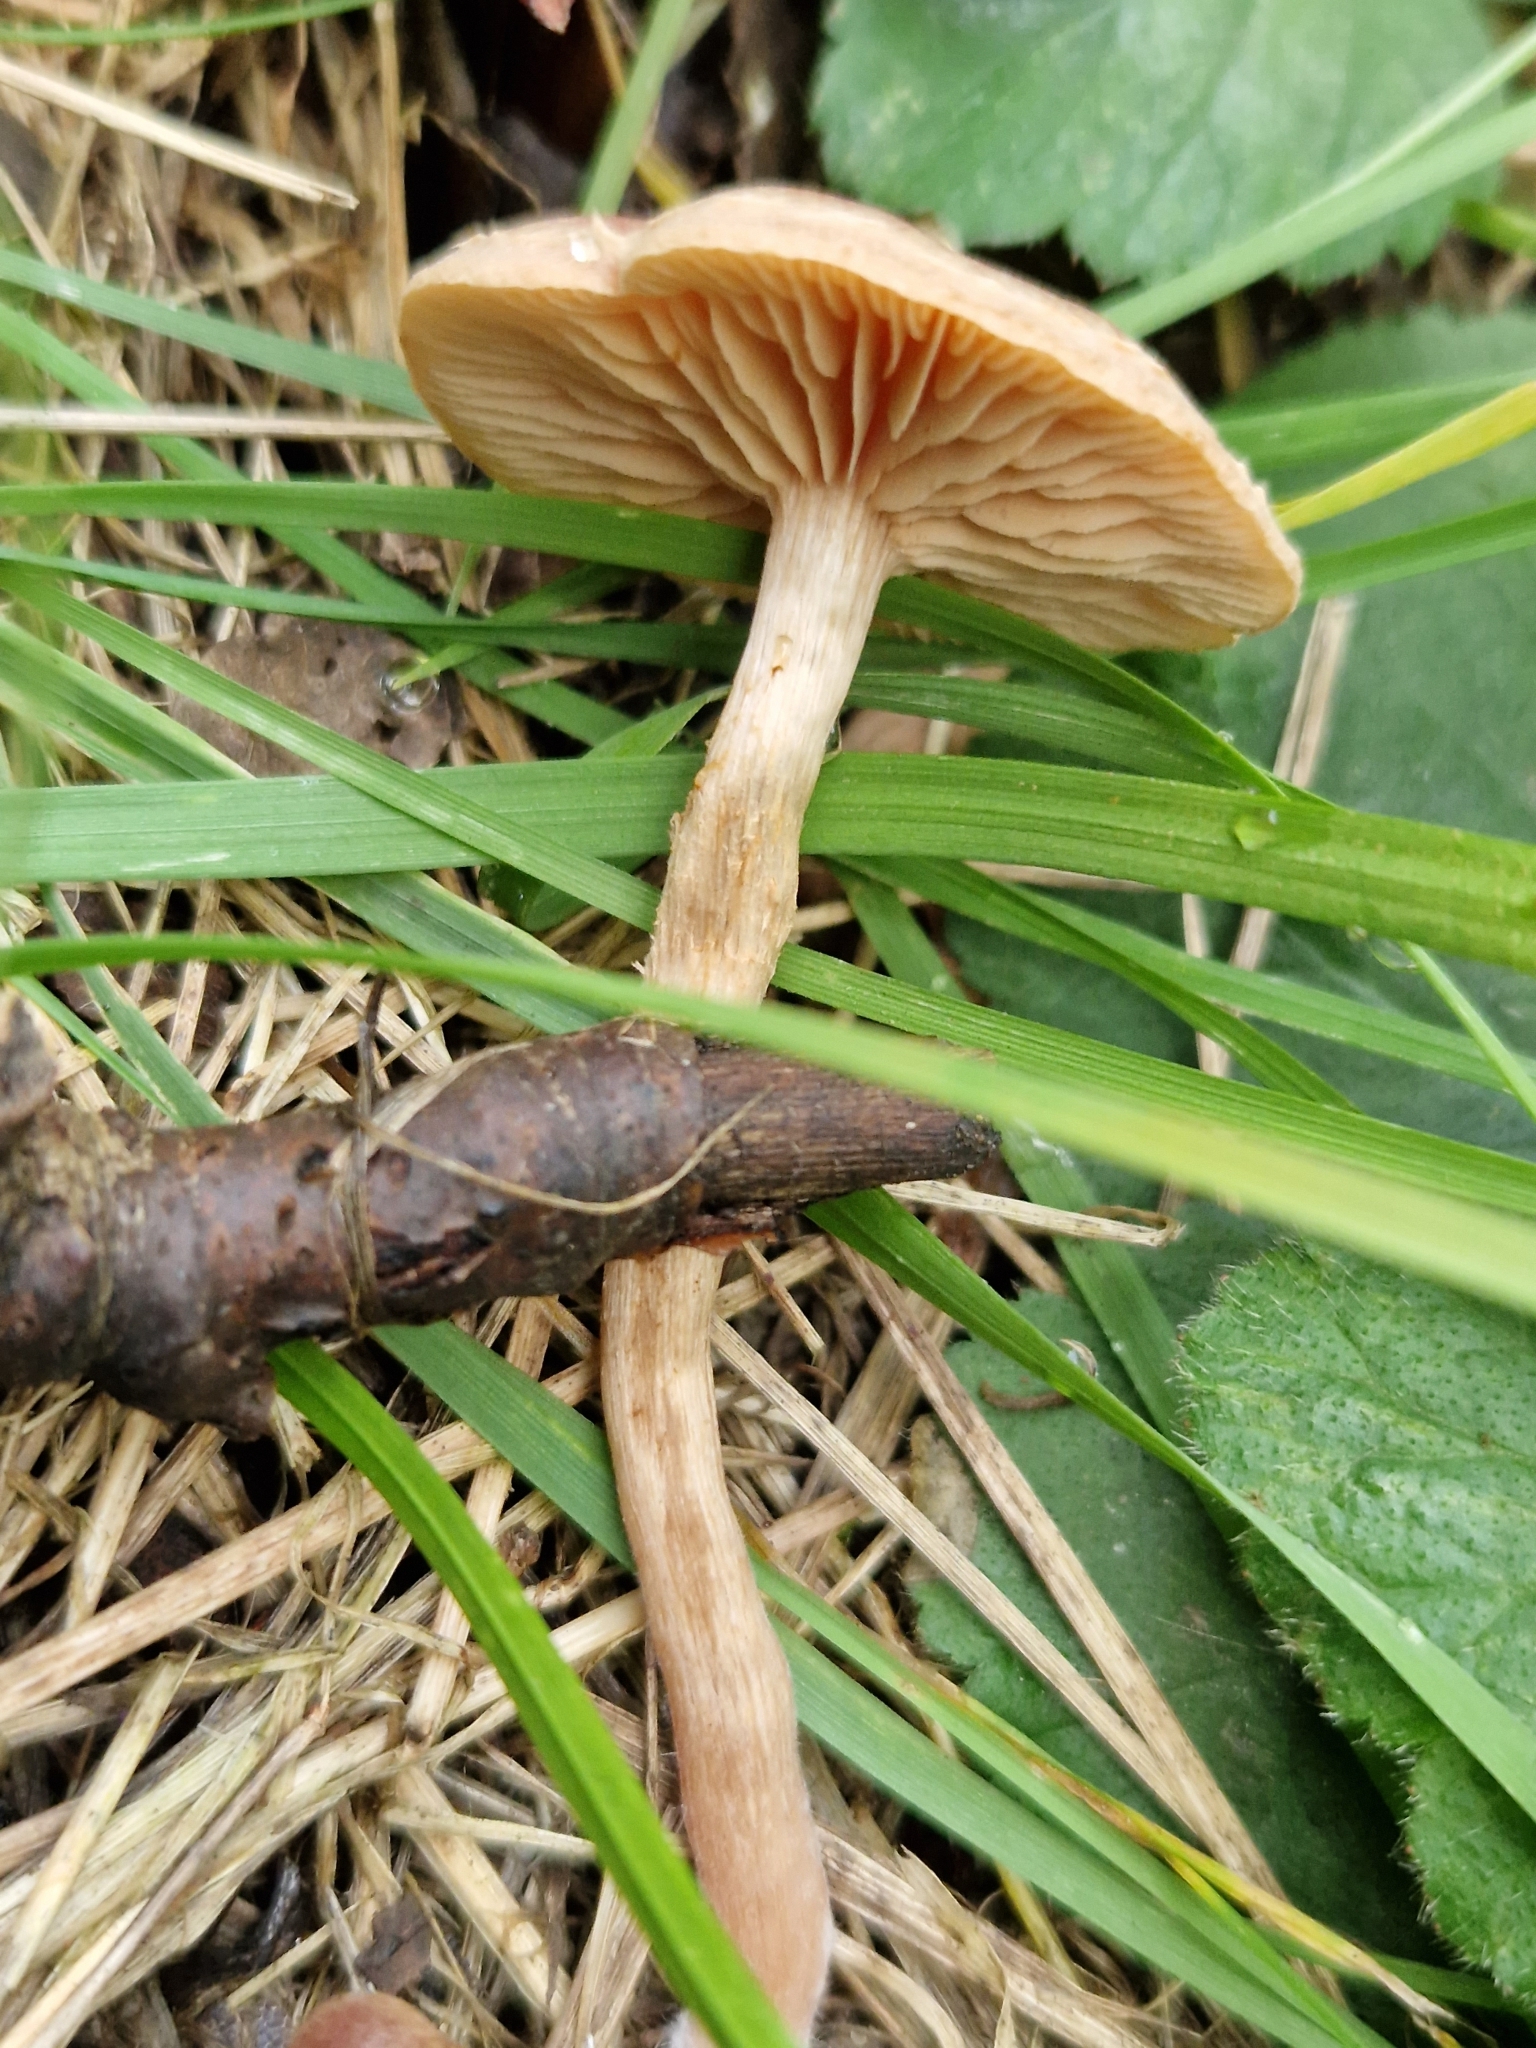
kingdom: Fungi
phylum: Basidiomycota
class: Agaricomycetes
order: Agaricales
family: Tubariaceae
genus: Tubaria
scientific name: Tubaria furfuracea
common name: Scurfy twiglet
